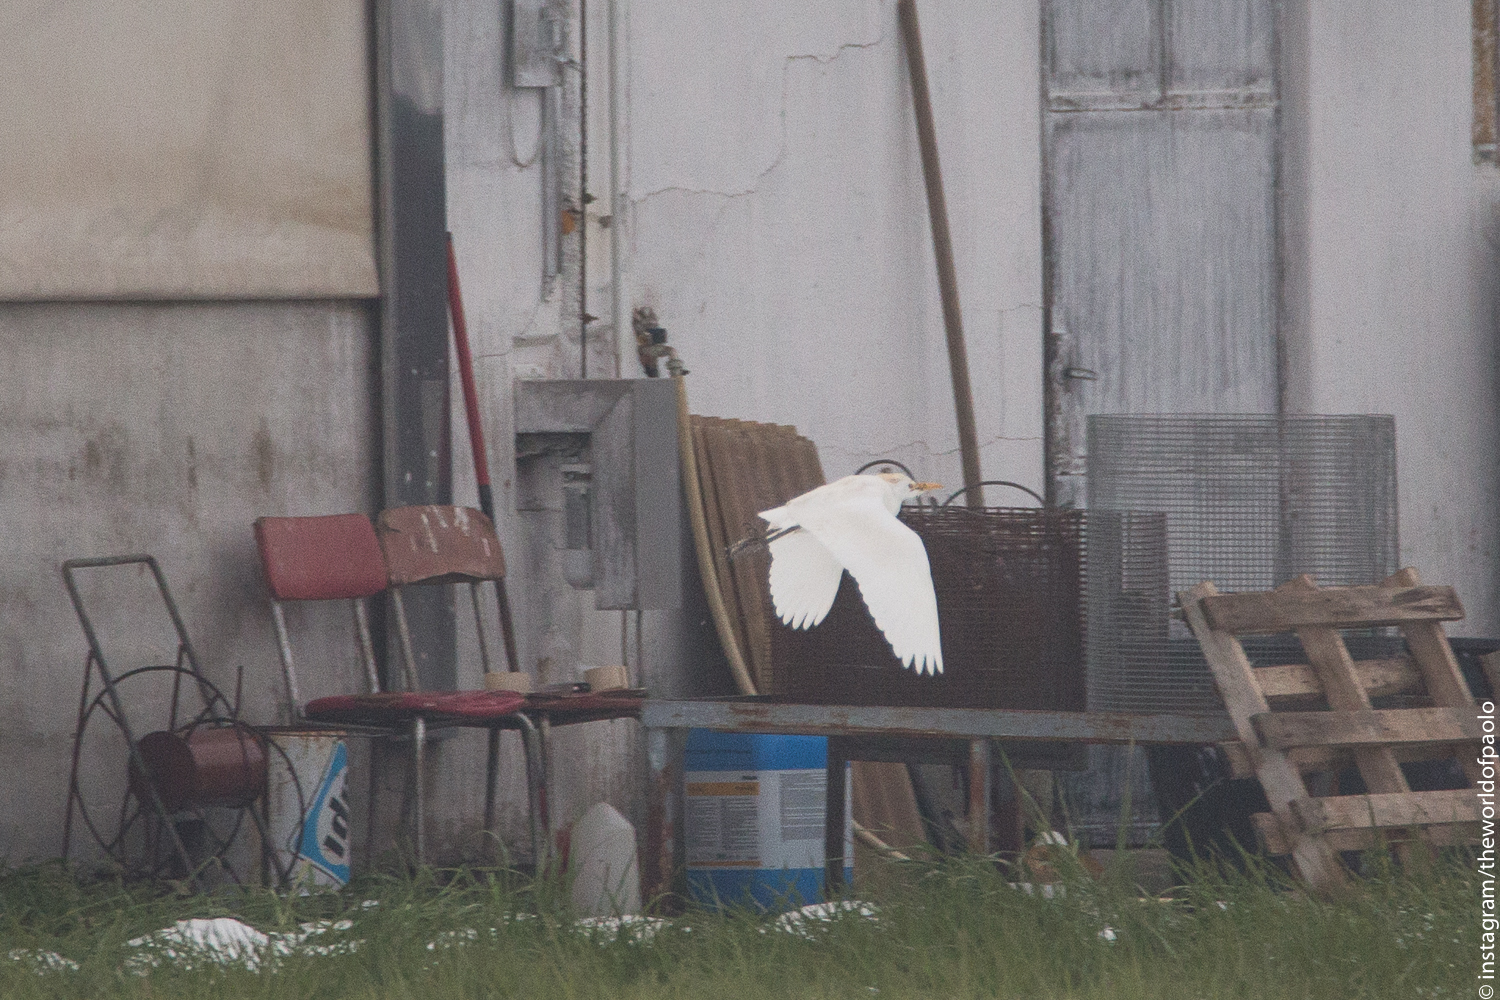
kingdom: Animalia
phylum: Chordata
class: Aves
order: Pelecaniformes
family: Ardeidae
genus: Bubulcus
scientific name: Bubulcus ibis
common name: Cattle egret
